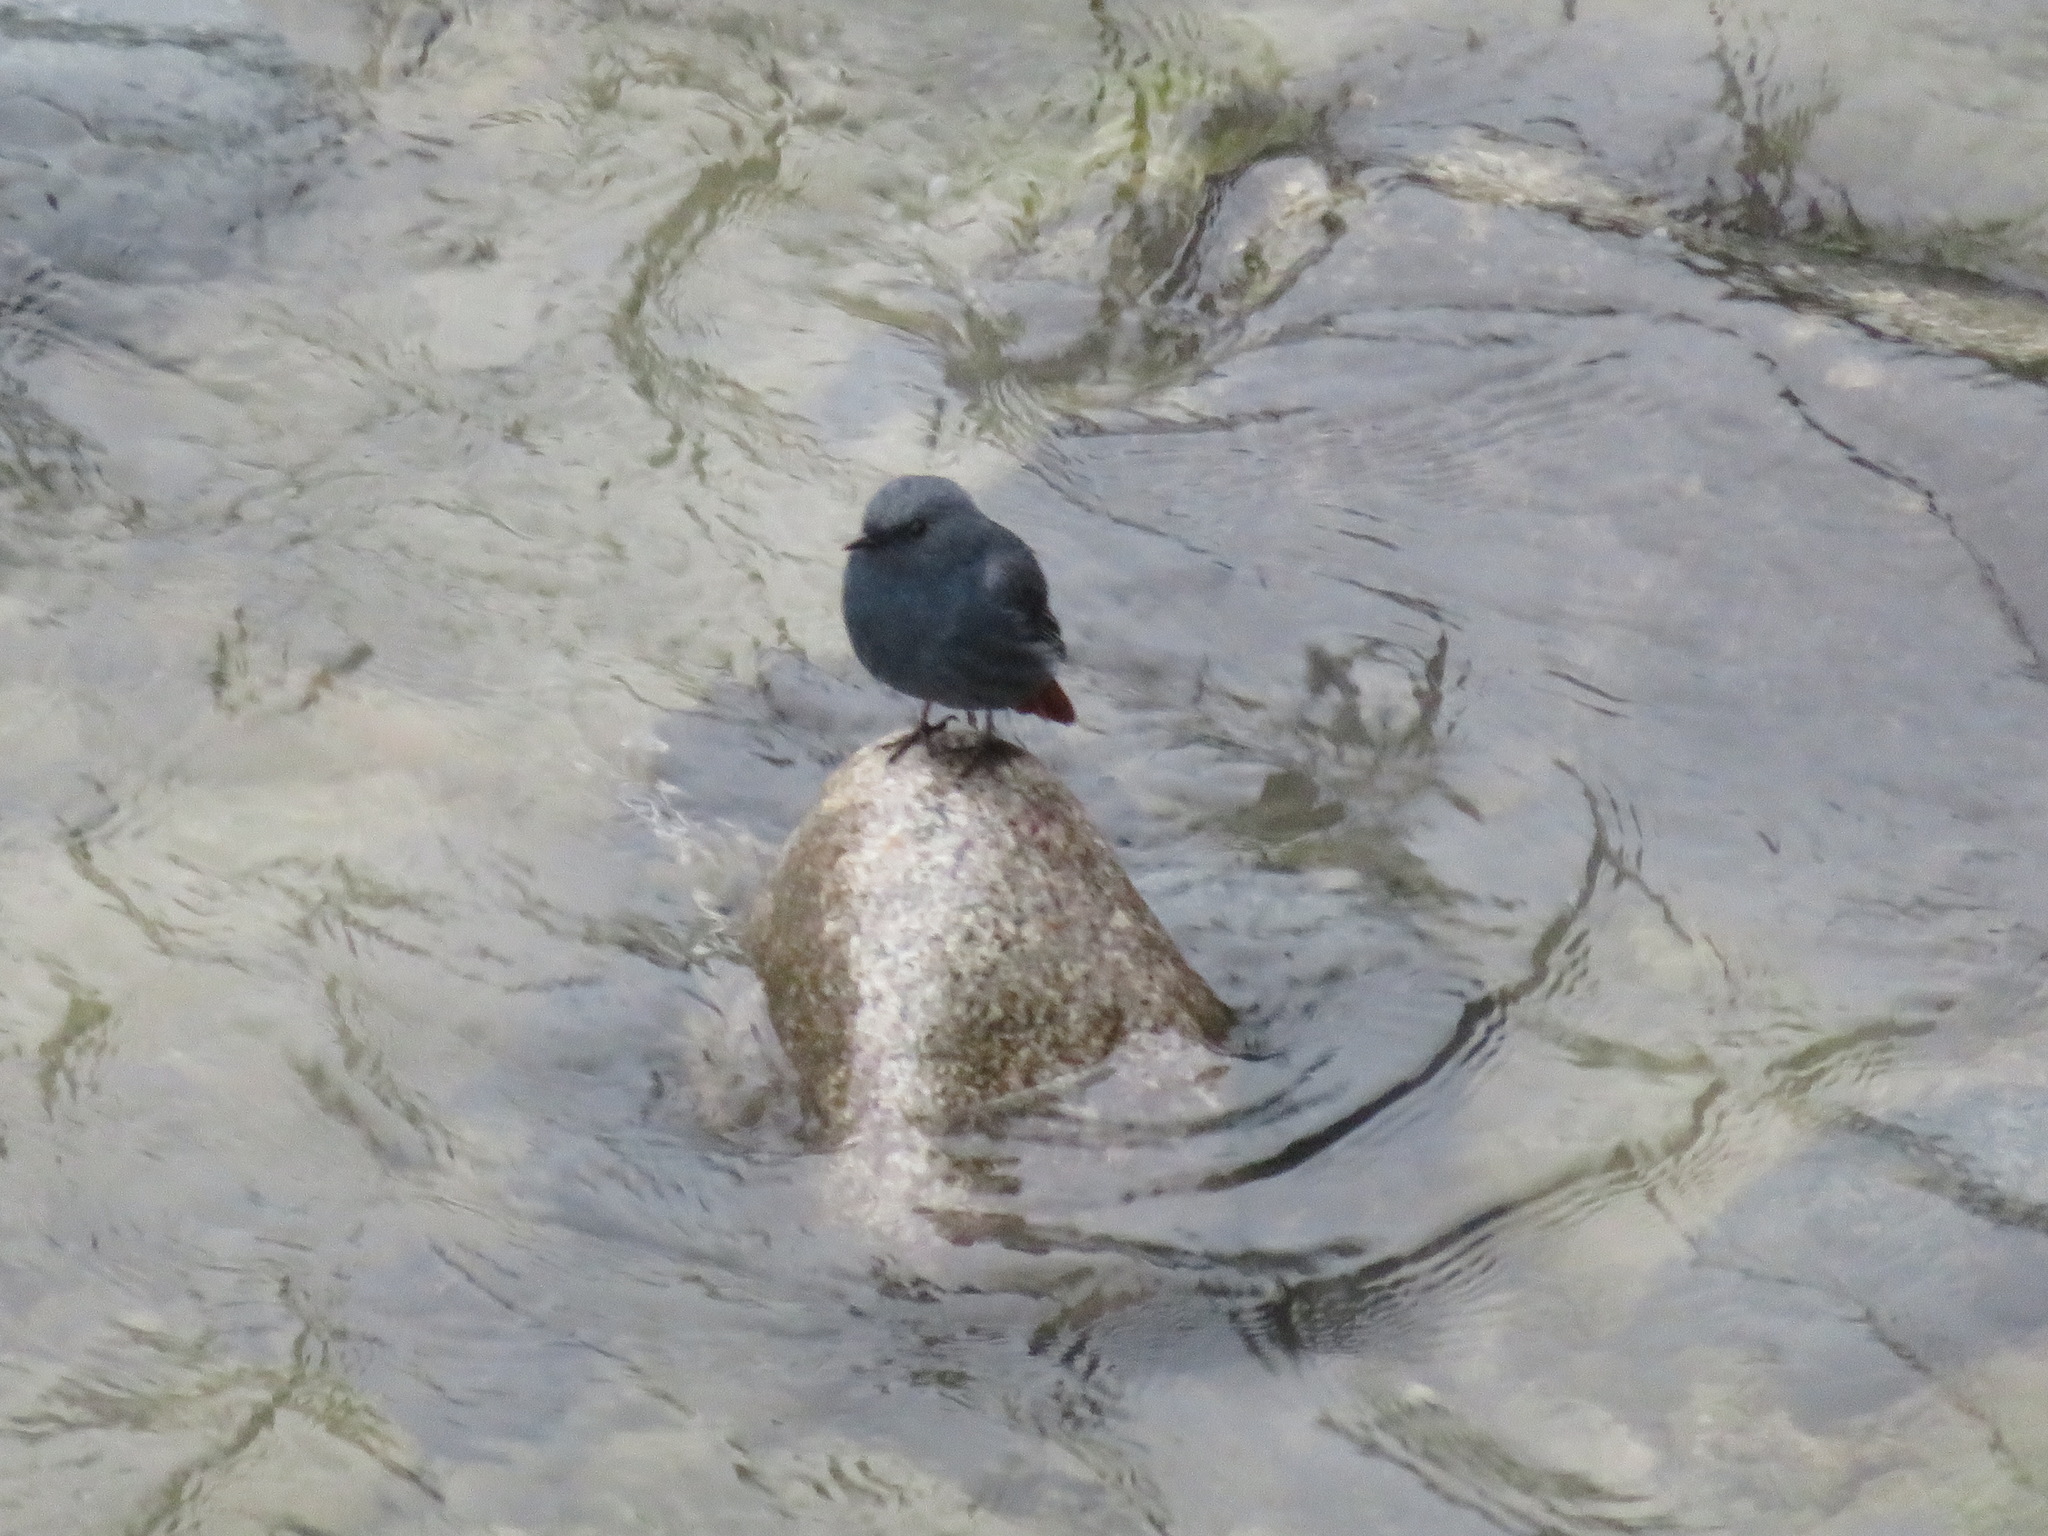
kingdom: Animalia
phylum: Chordata
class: Aves
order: Passeriformes
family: Muscicapidae
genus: Phoenicurus
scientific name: Phoenicurus fuliginosus
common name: Plumbeous water redstart
